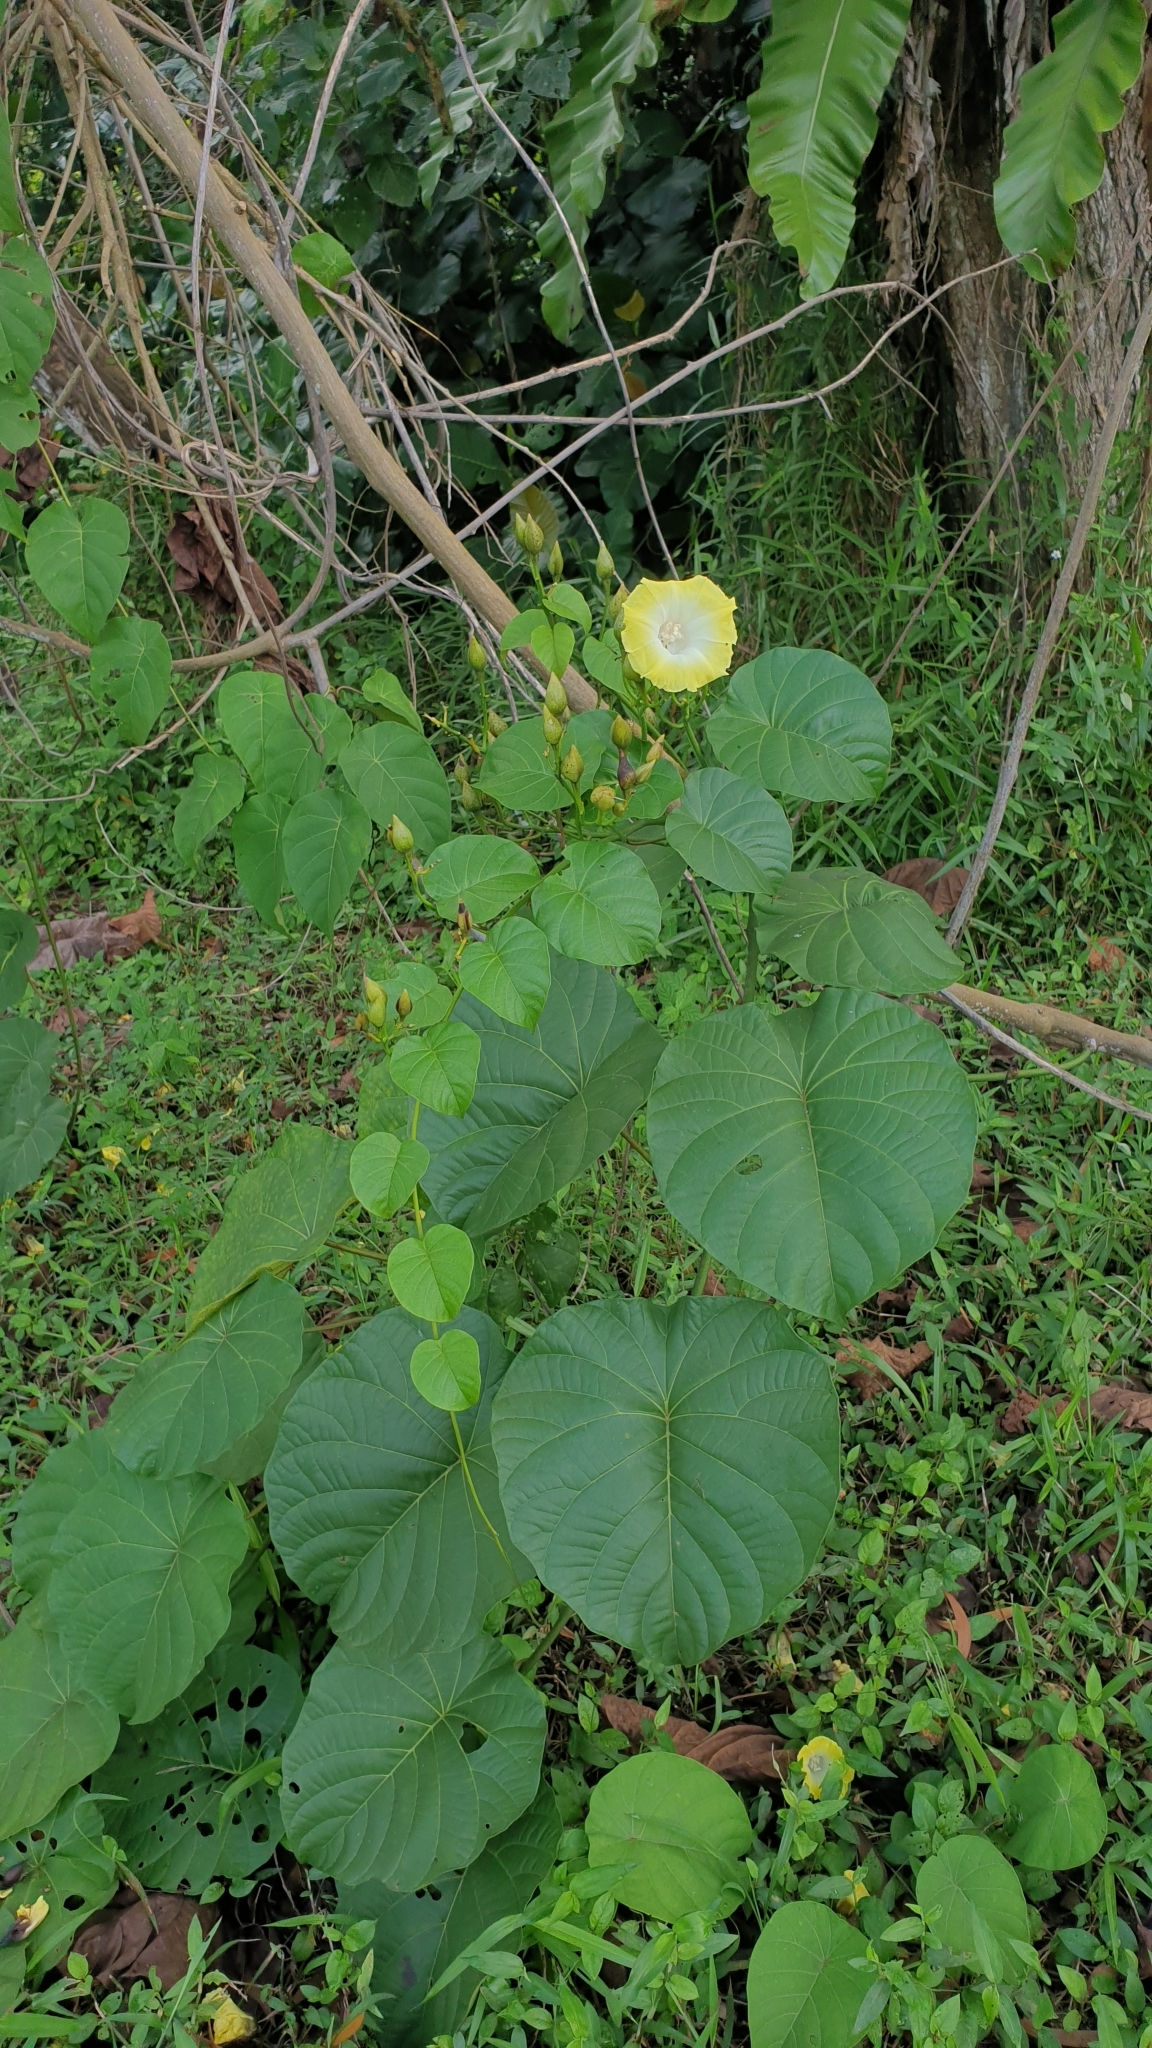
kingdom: Plantae
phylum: Tracheophyta
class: Magnoliopsida
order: Solanales
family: Convolvulaceae
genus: Decalobanthus
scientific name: Decalobanthus peltatus
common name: Merremia
